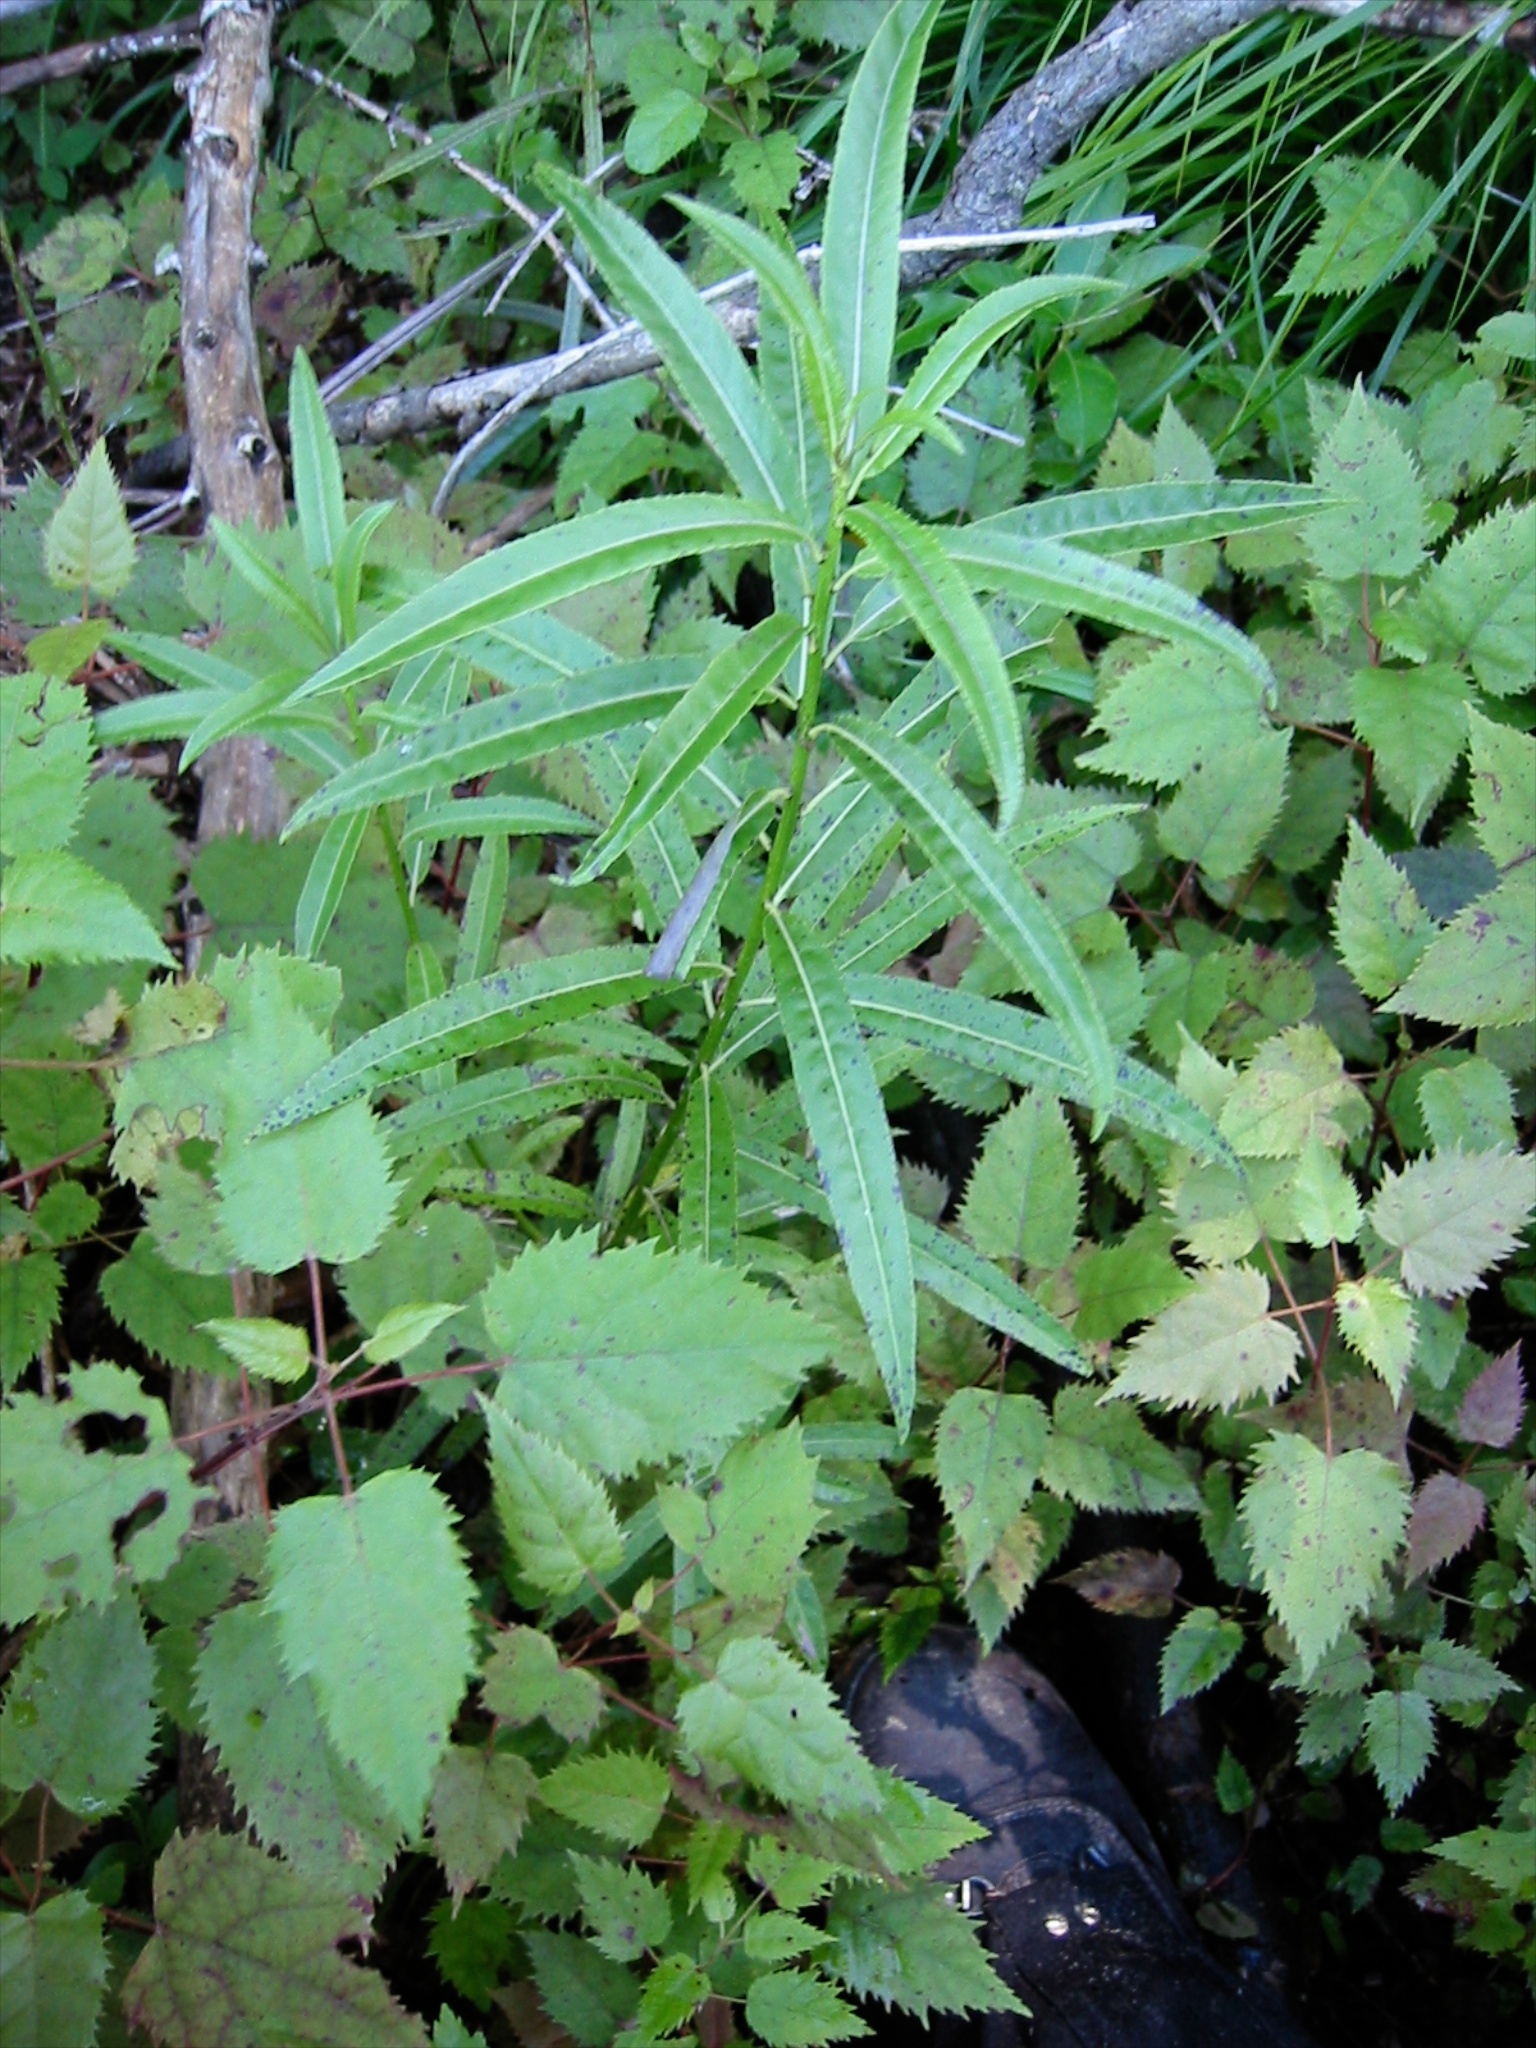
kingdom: Plantae
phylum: Tracheophyta
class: Magnoliopsida
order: Malpighiales
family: Violaceae
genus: Melicytus
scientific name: Melicytus lanceolatus
